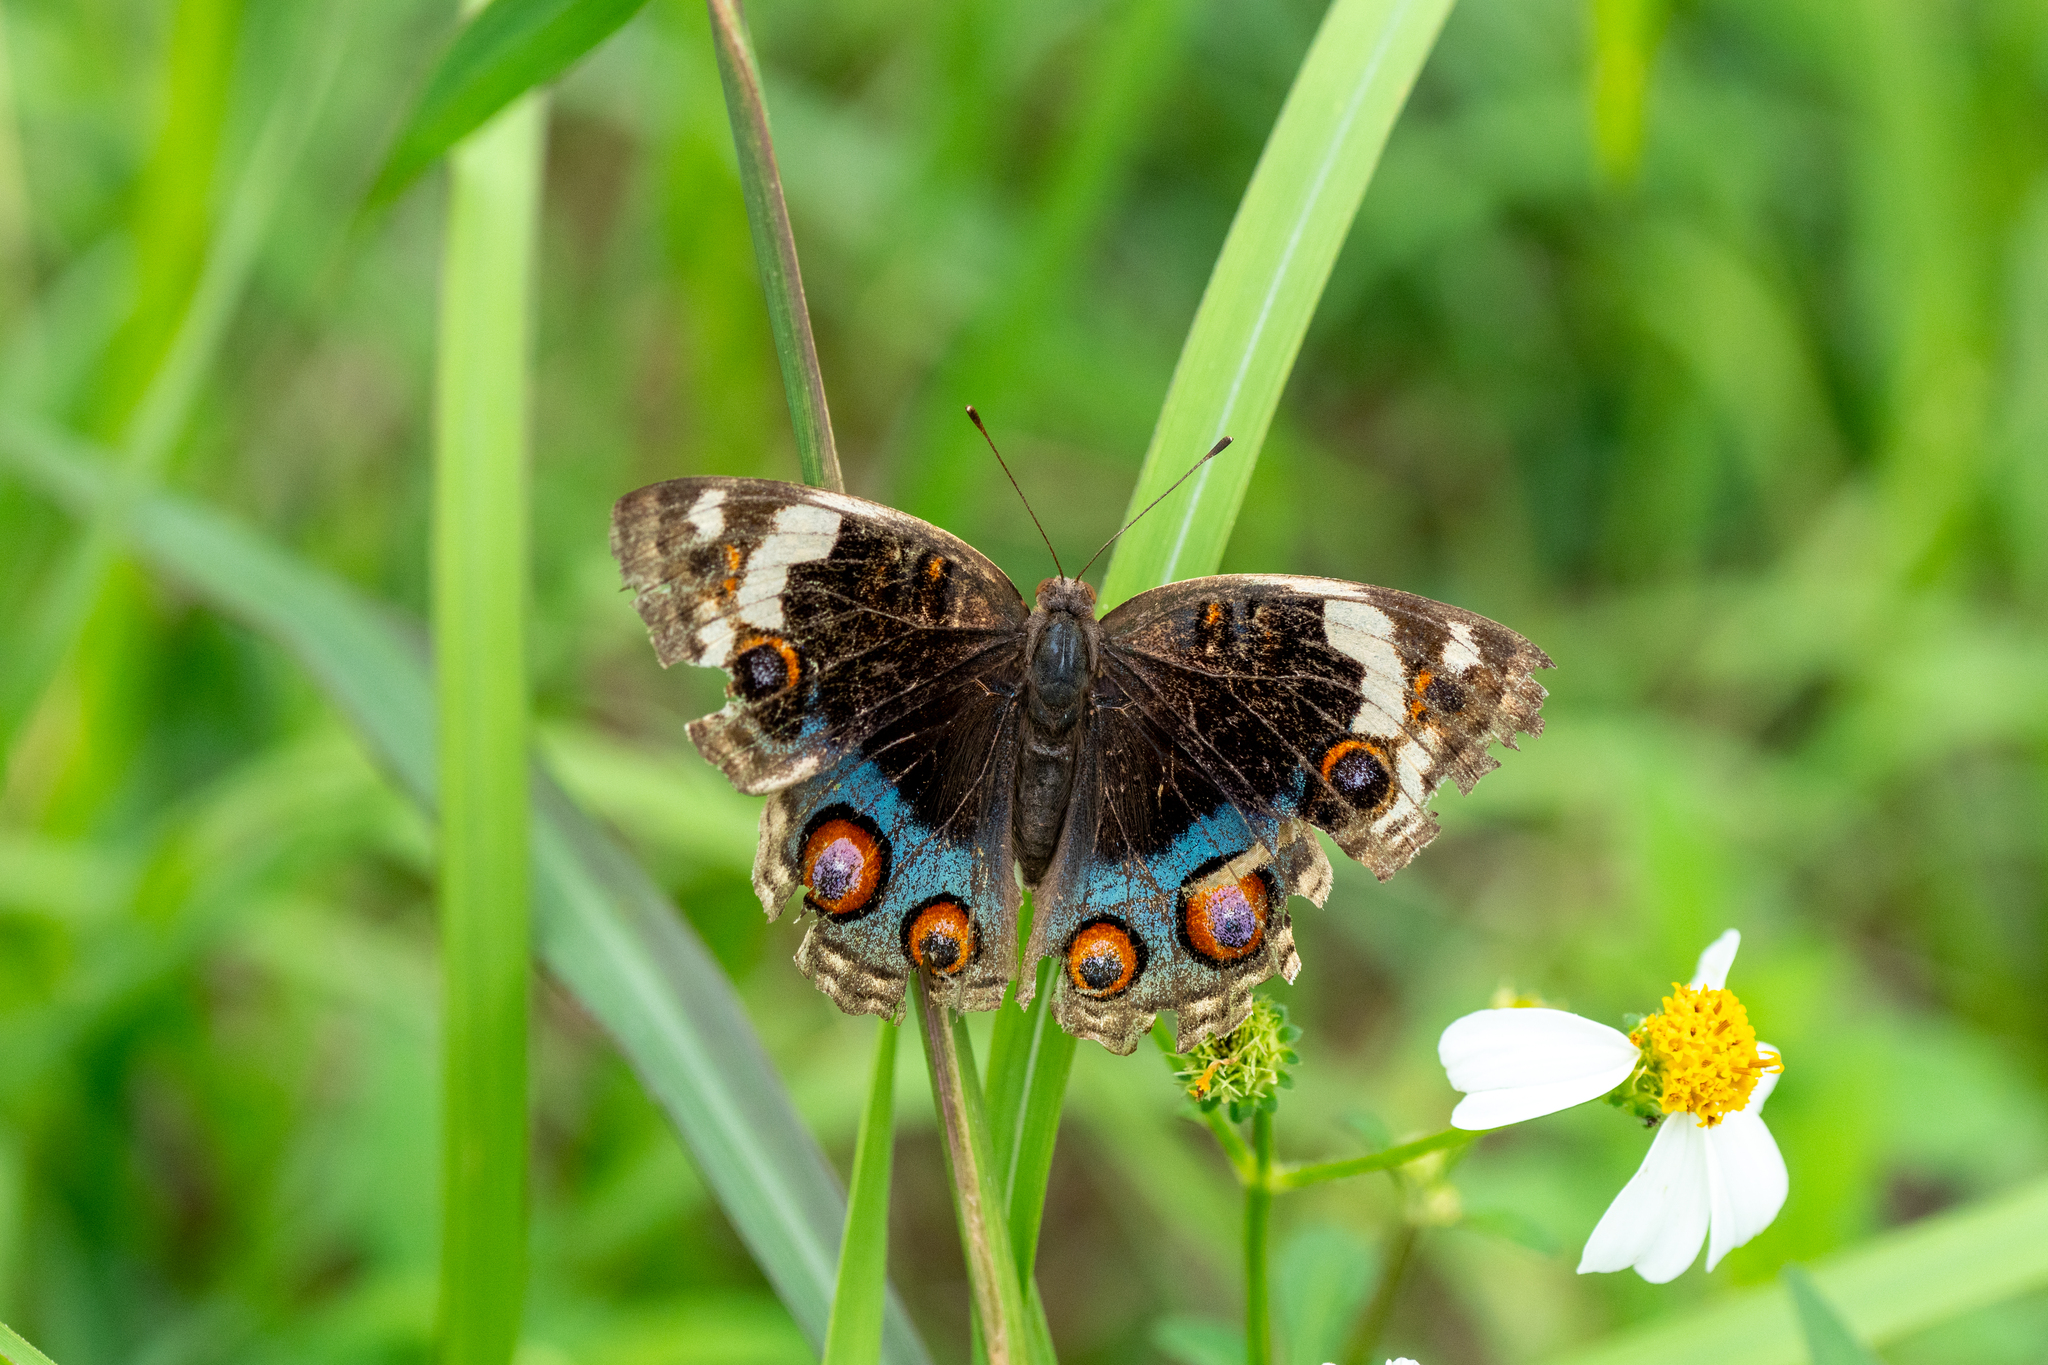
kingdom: Animalia
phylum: Arthropoda
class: Insecta
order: Lepidoptera
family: Nymphalidae
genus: Junonia
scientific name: Junonia orithya
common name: Blue pansy
